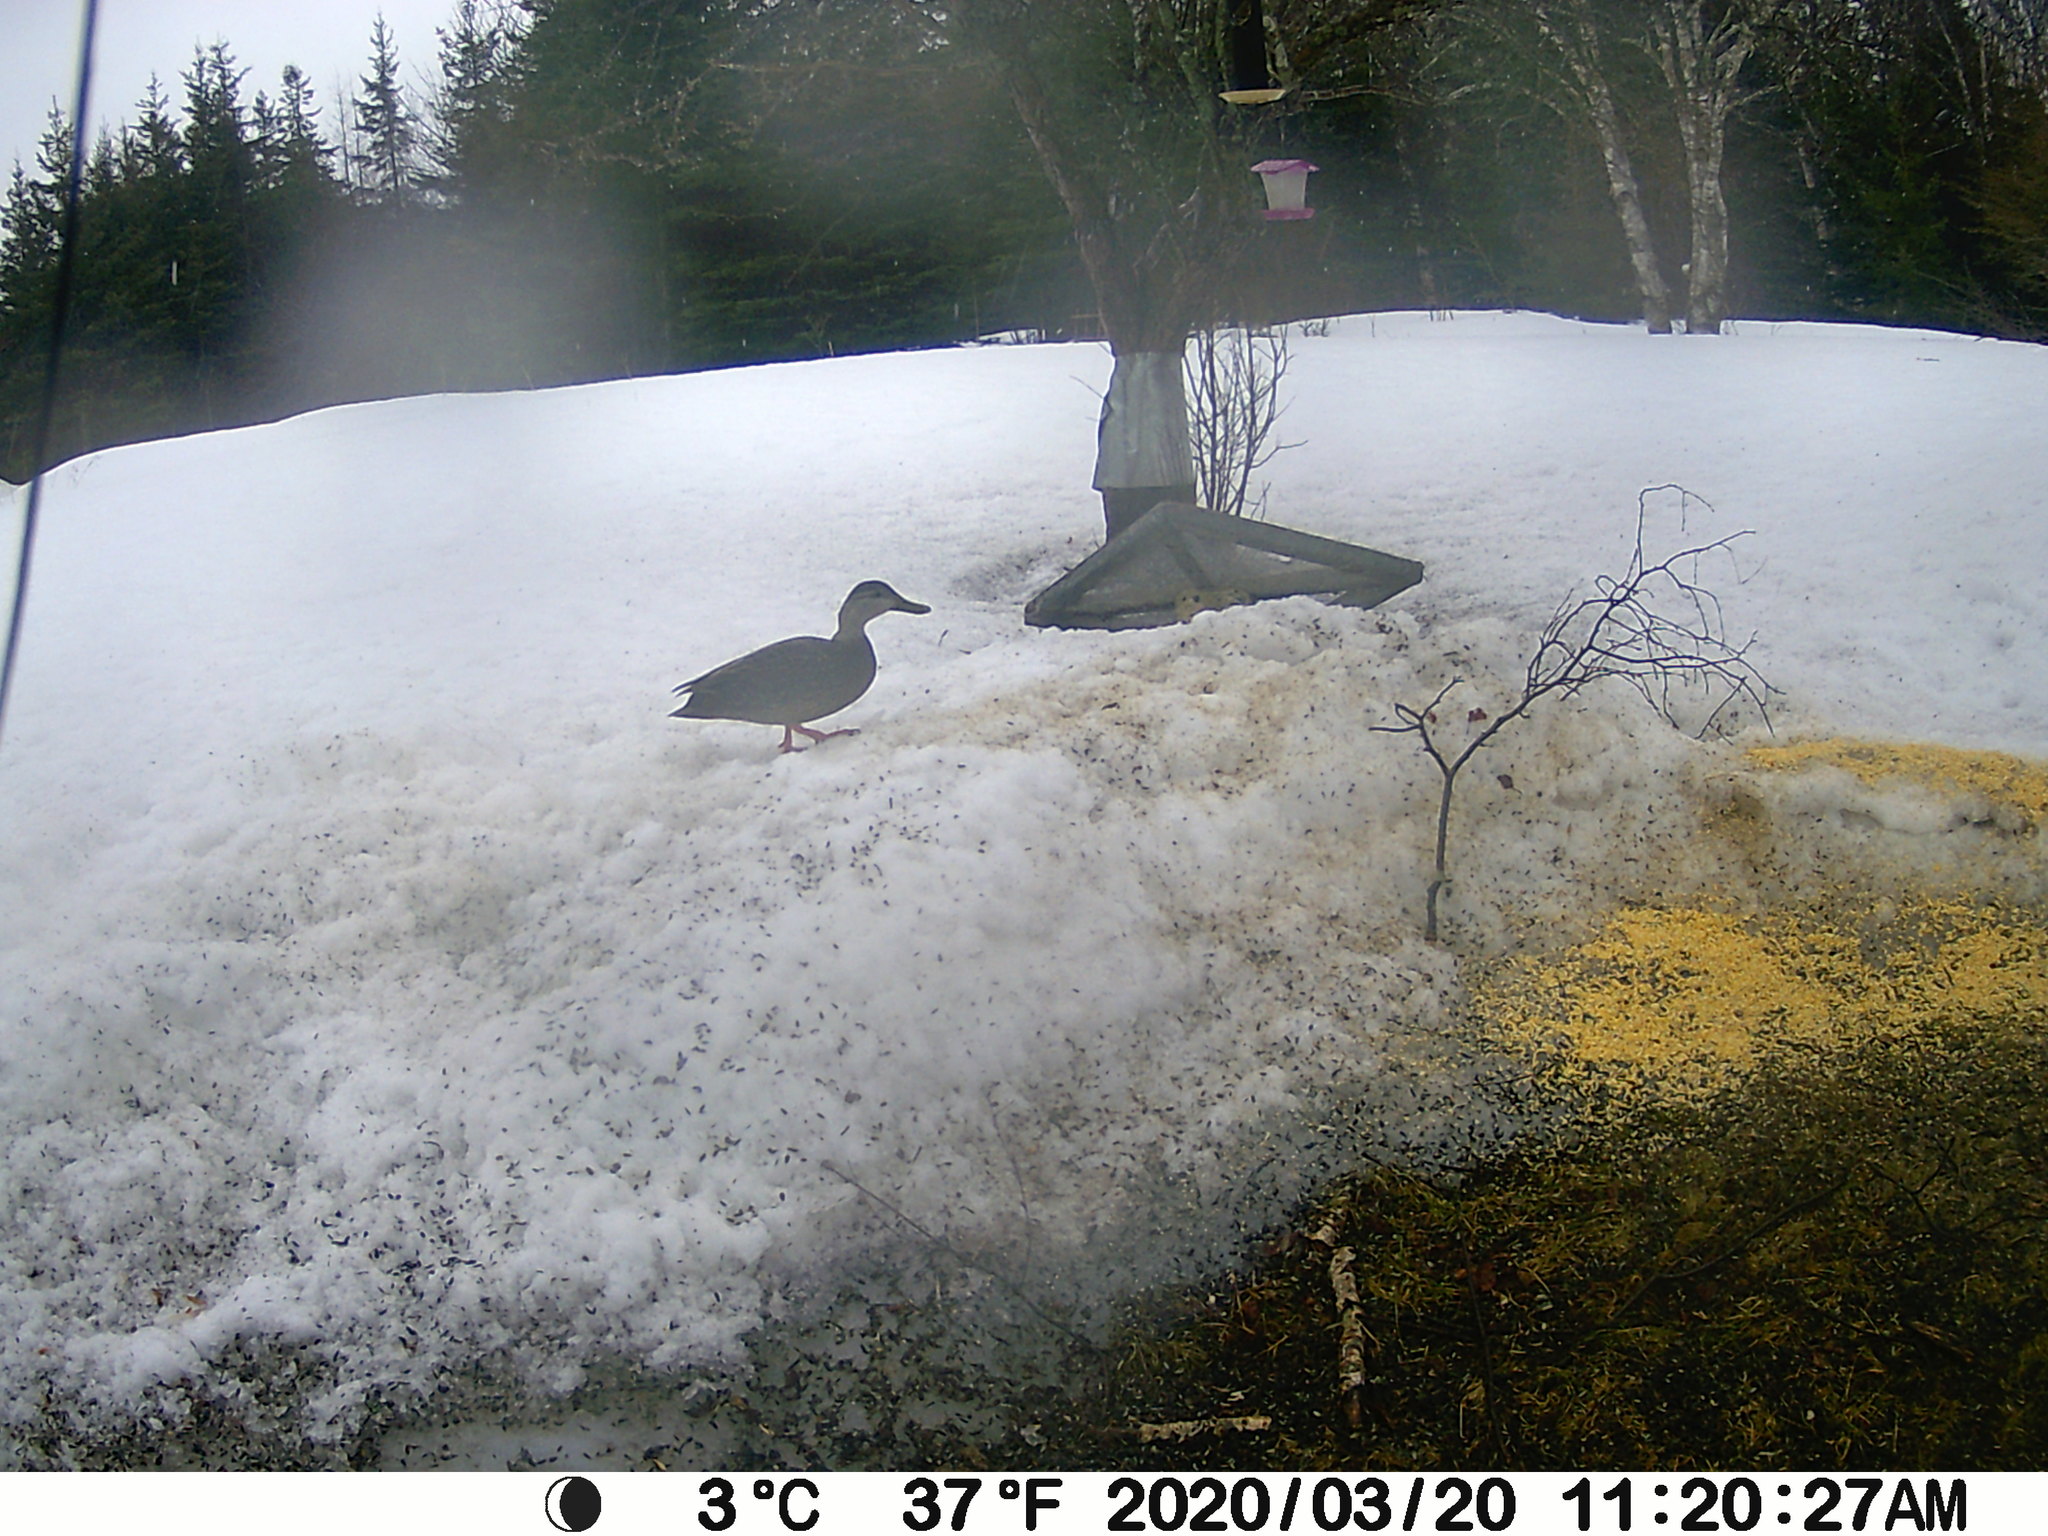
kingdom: Animalia
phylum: Chordata
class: Aves
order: Anseriformes
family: Anatidae
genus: Anas
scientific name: Anas rubripes
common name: American black duck
